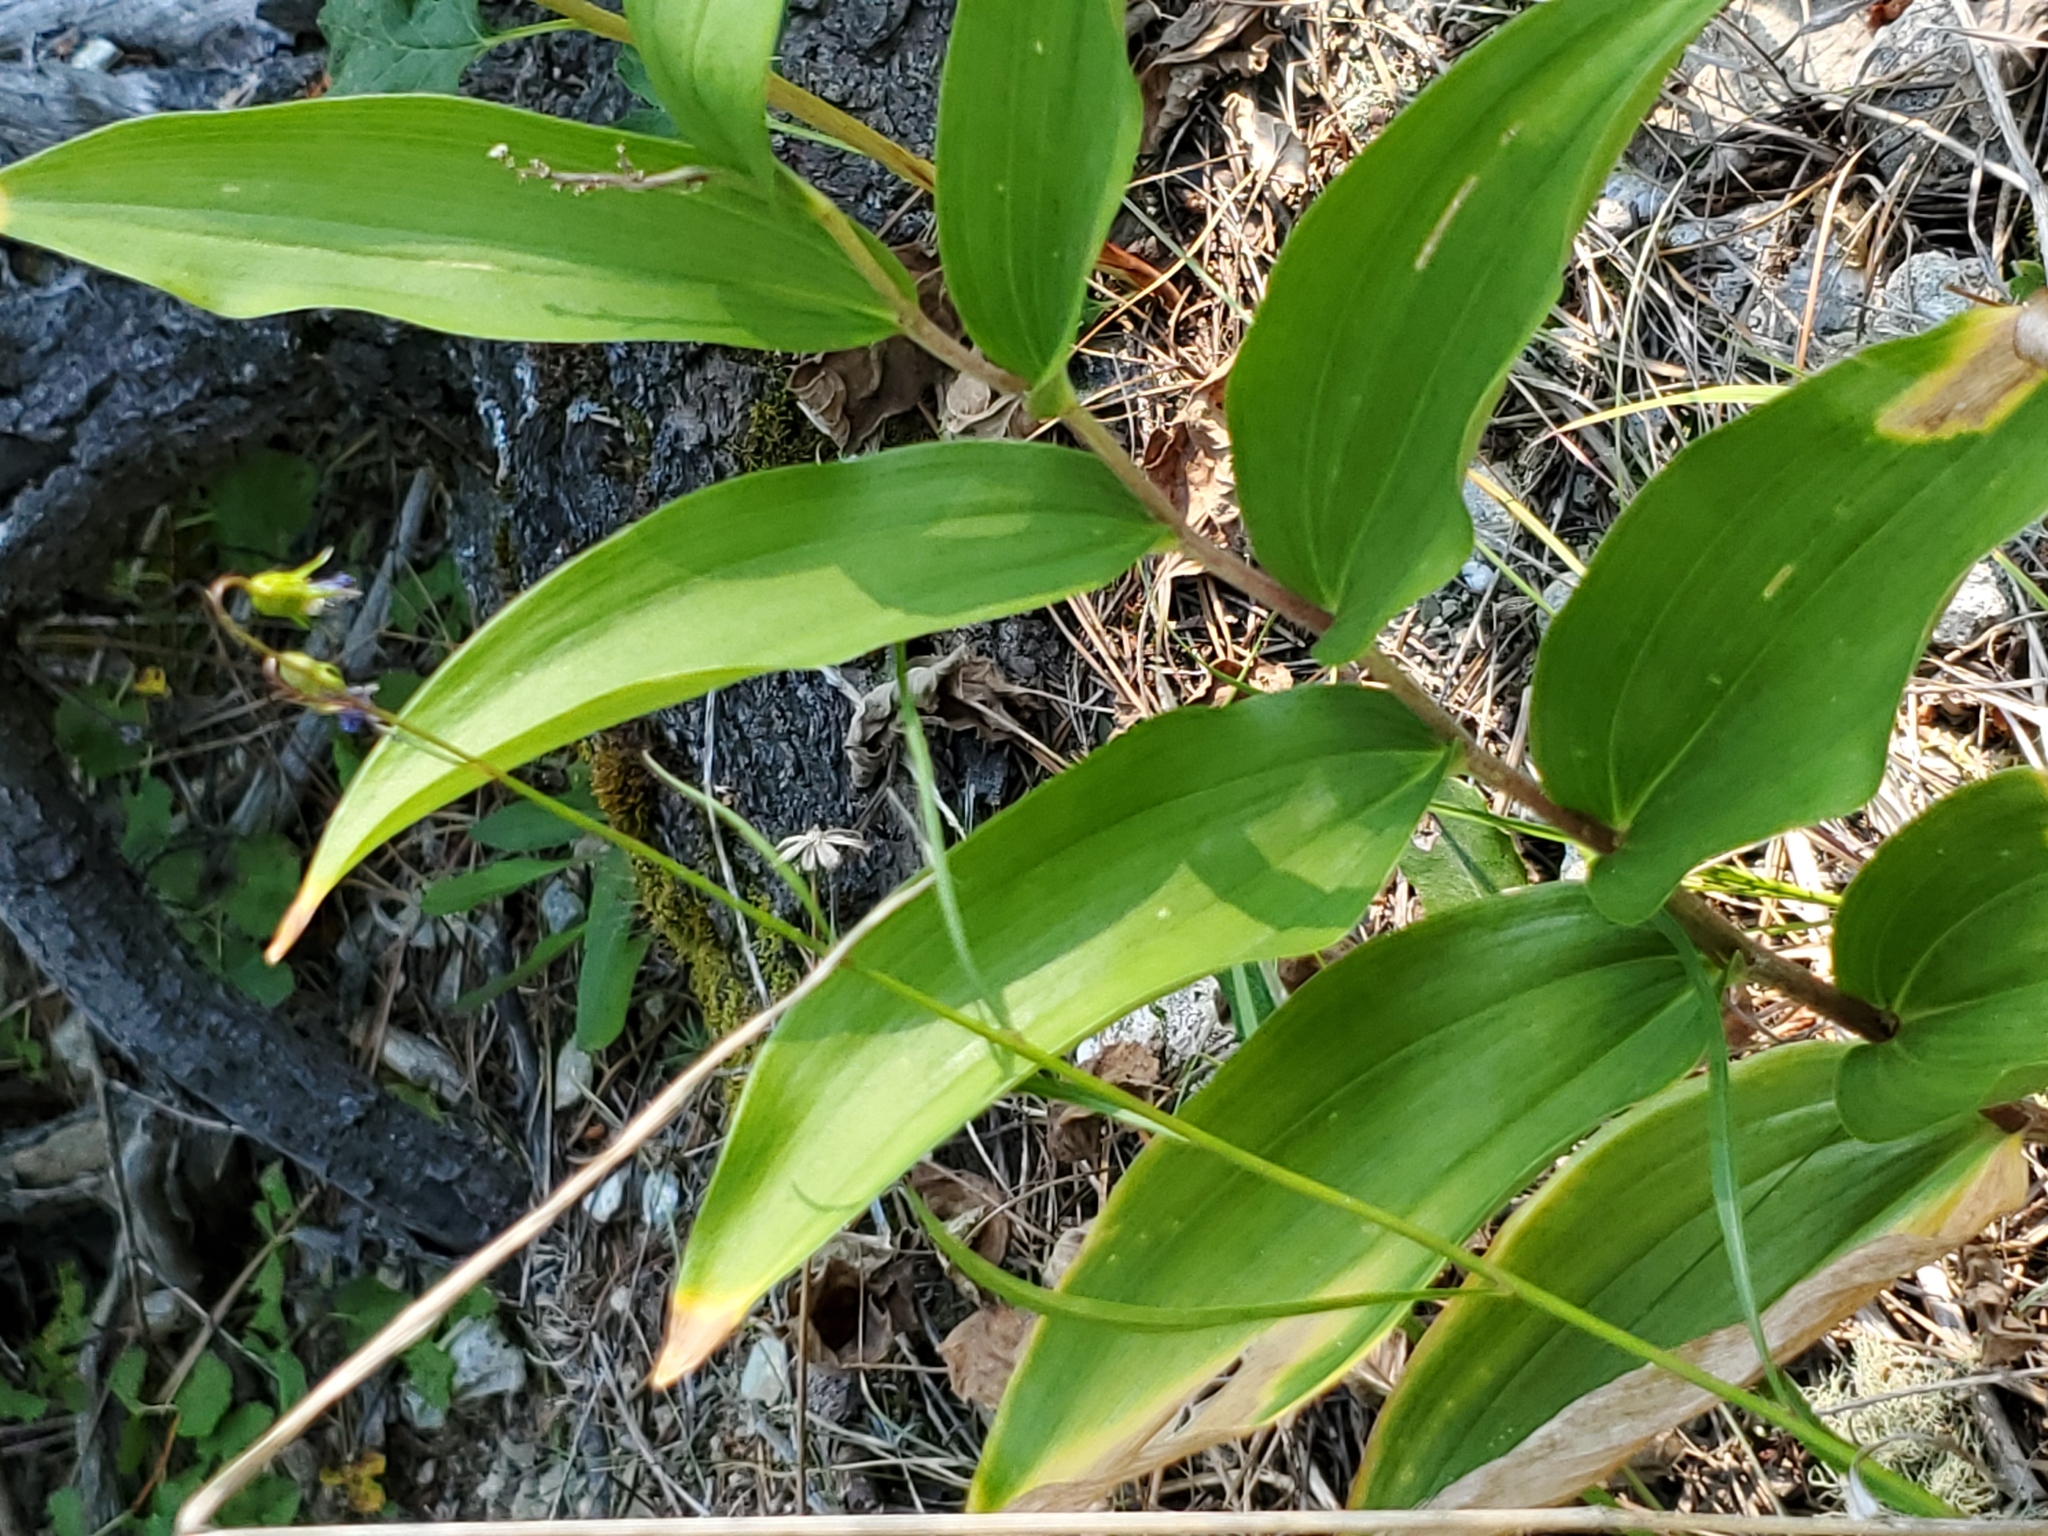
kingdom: Plantae
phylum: Tracheophyta
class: Liliopsida
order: Asparagales
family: Asparagaceae
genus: Maianthemum
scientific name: Maianthemum racemosum
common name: False spikenard
